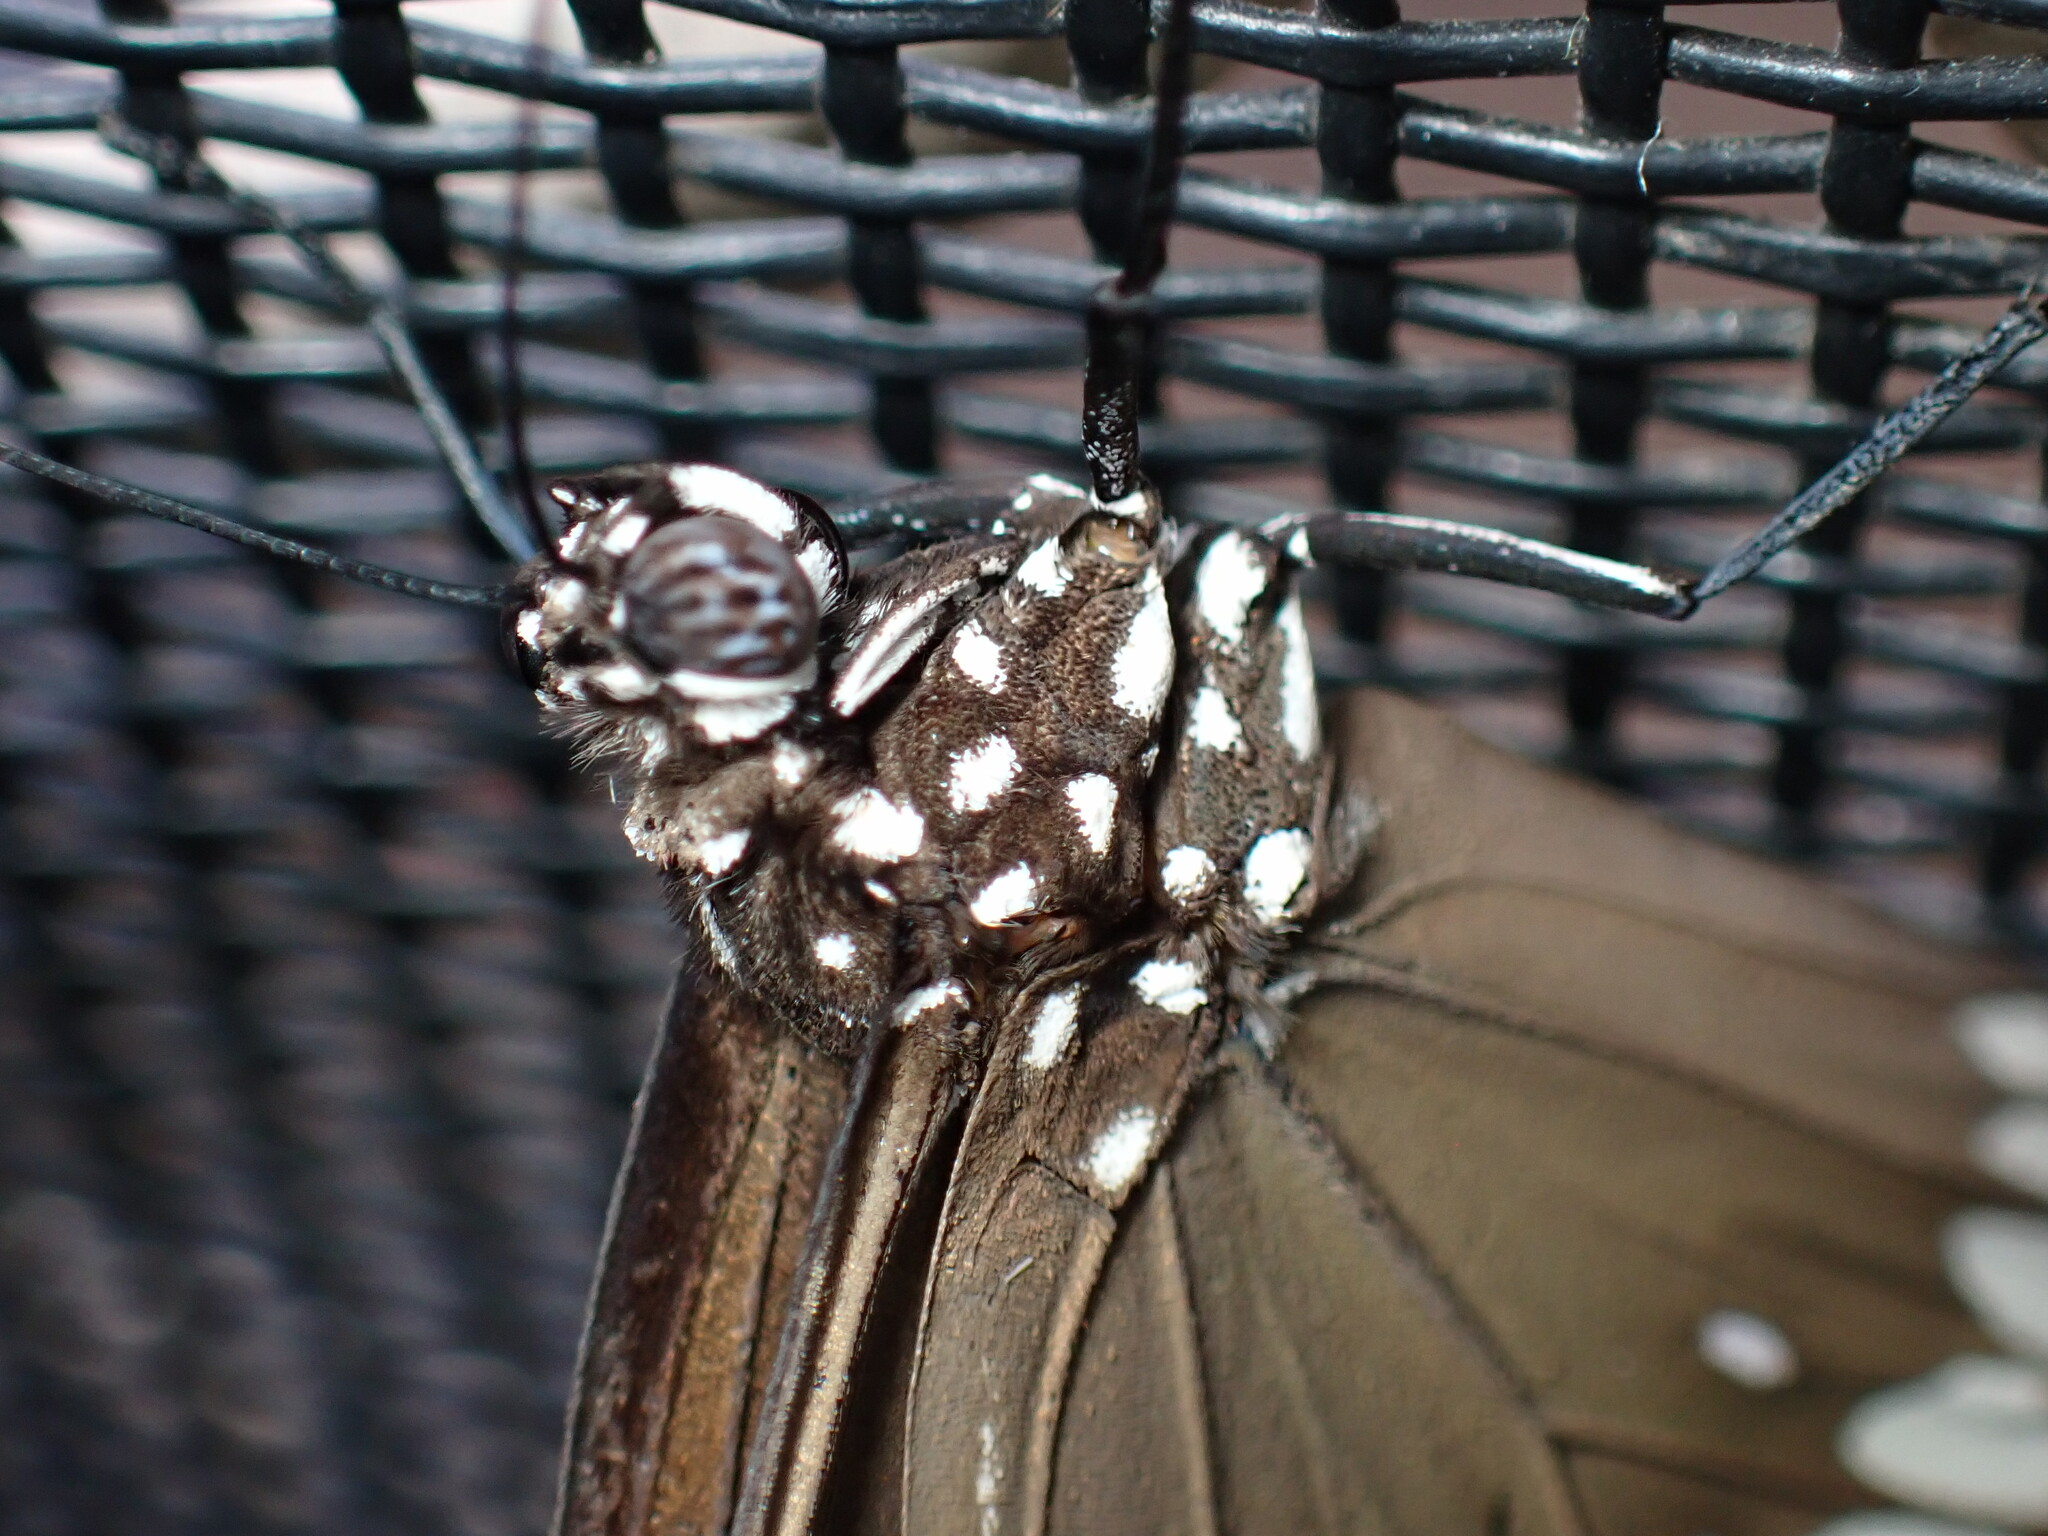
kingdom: Animalia
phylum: Arthropoda
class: Insecta
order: Lepidoptera
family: Nymphalidae
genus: Euploea
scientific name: Euploea core
